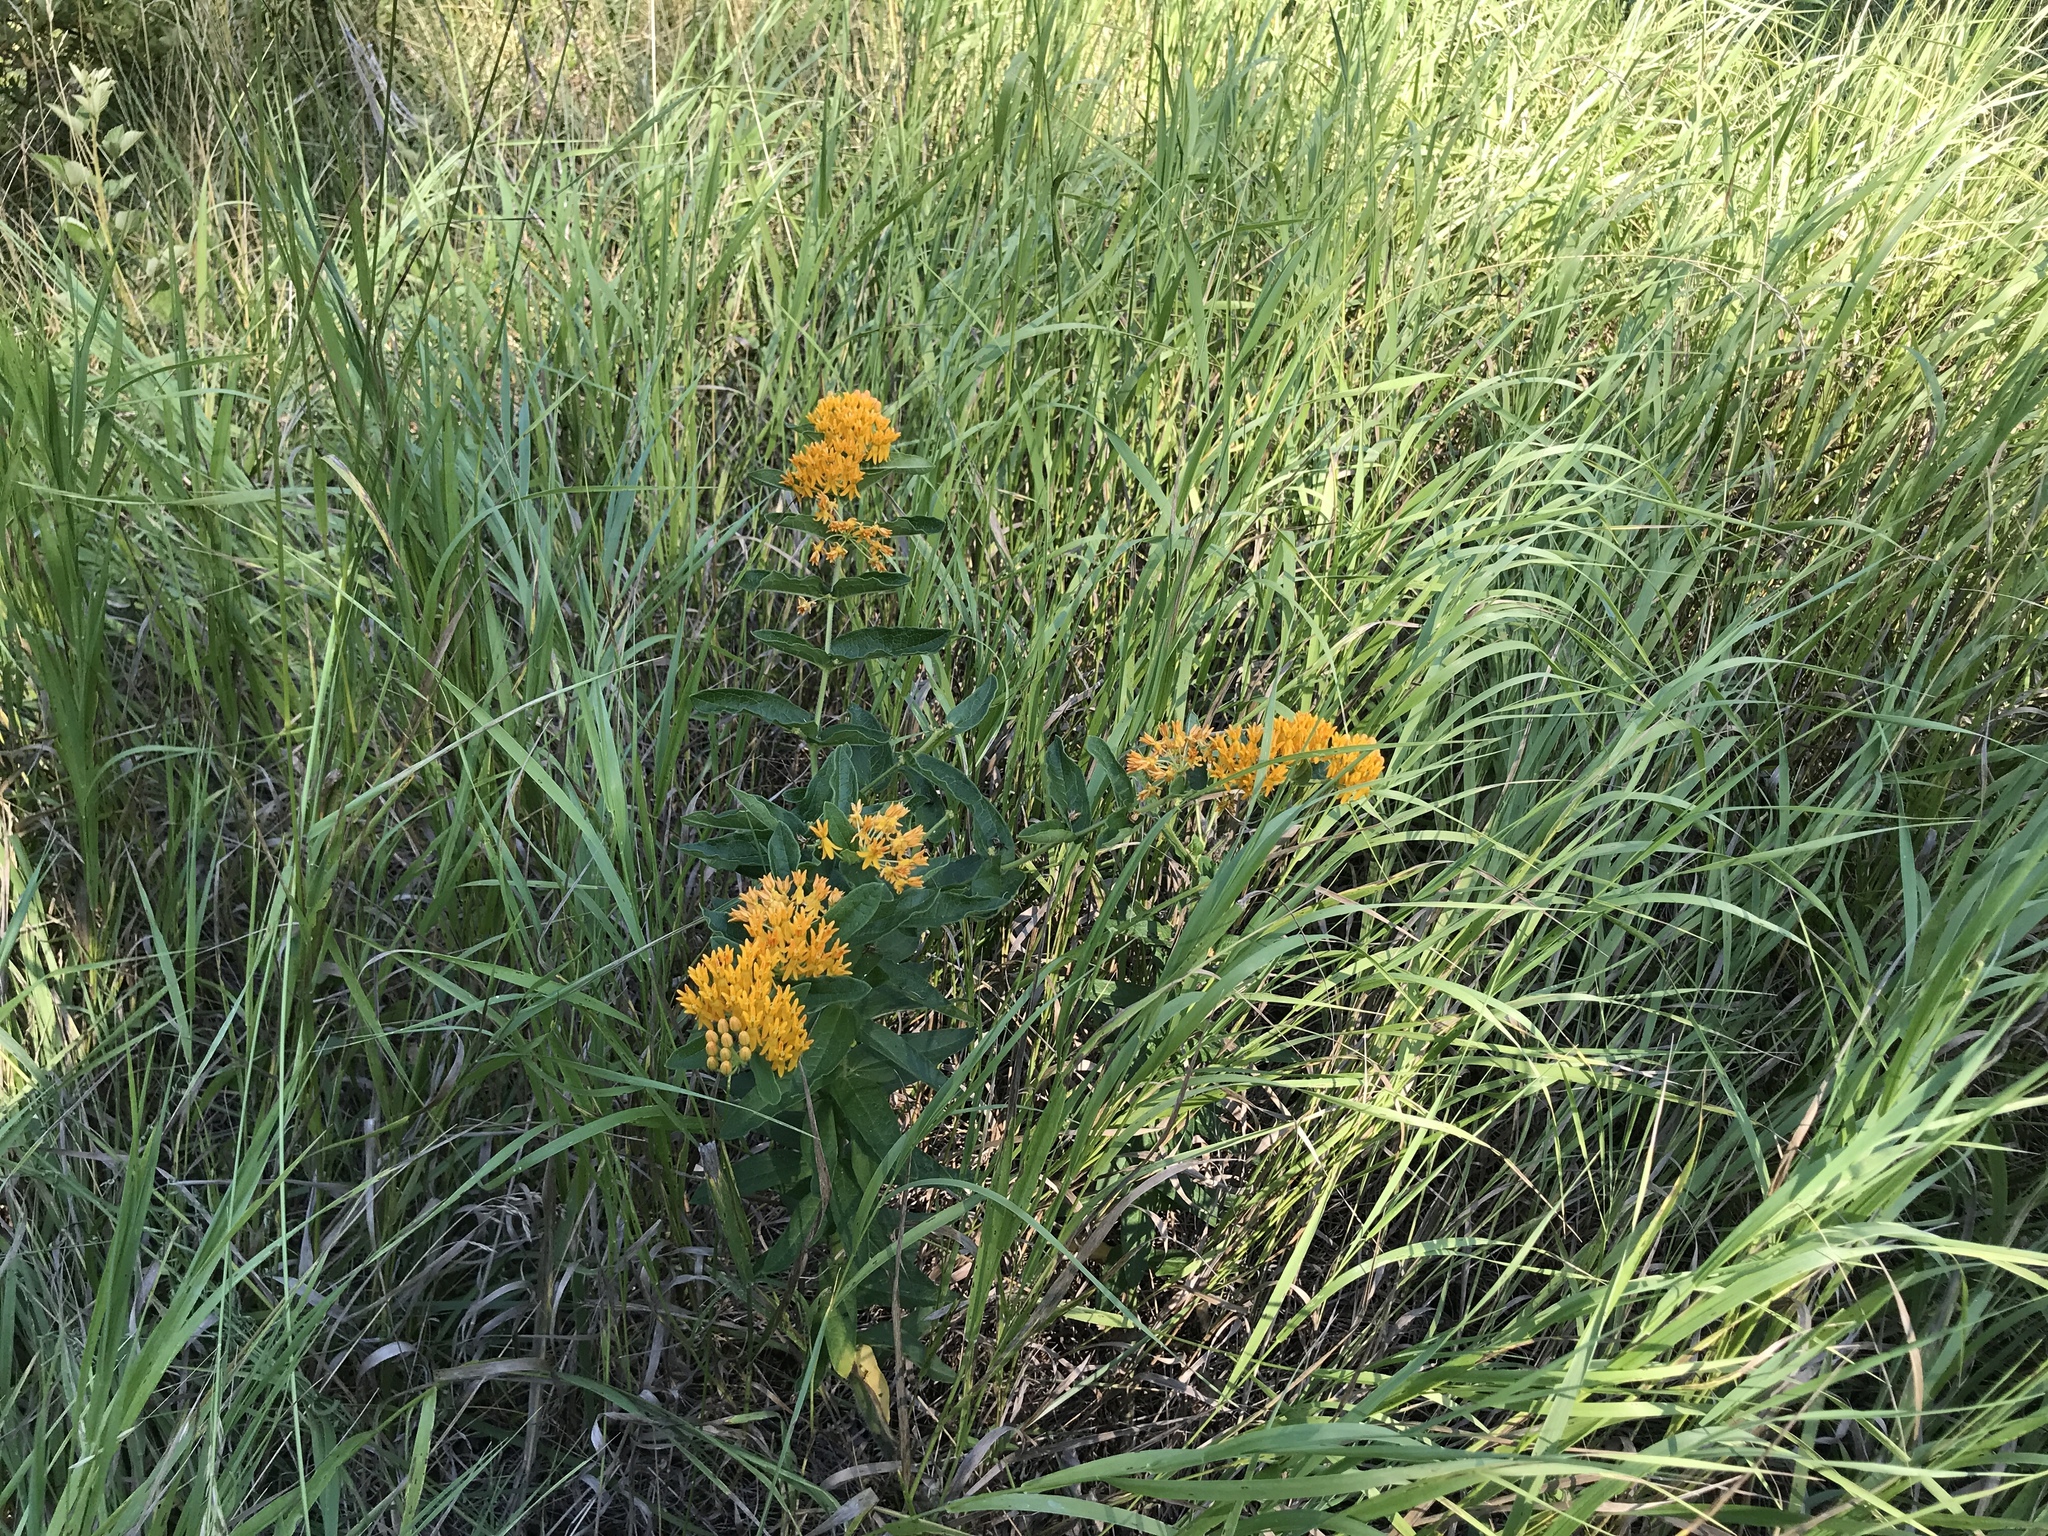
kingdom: Plantae
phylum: Tracheophyta
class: Magnoliopsida
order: Gentianales
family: Apocynaceae
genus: Asclepias
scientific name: Asclepias tuberosa
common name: Butterfly milkweed
